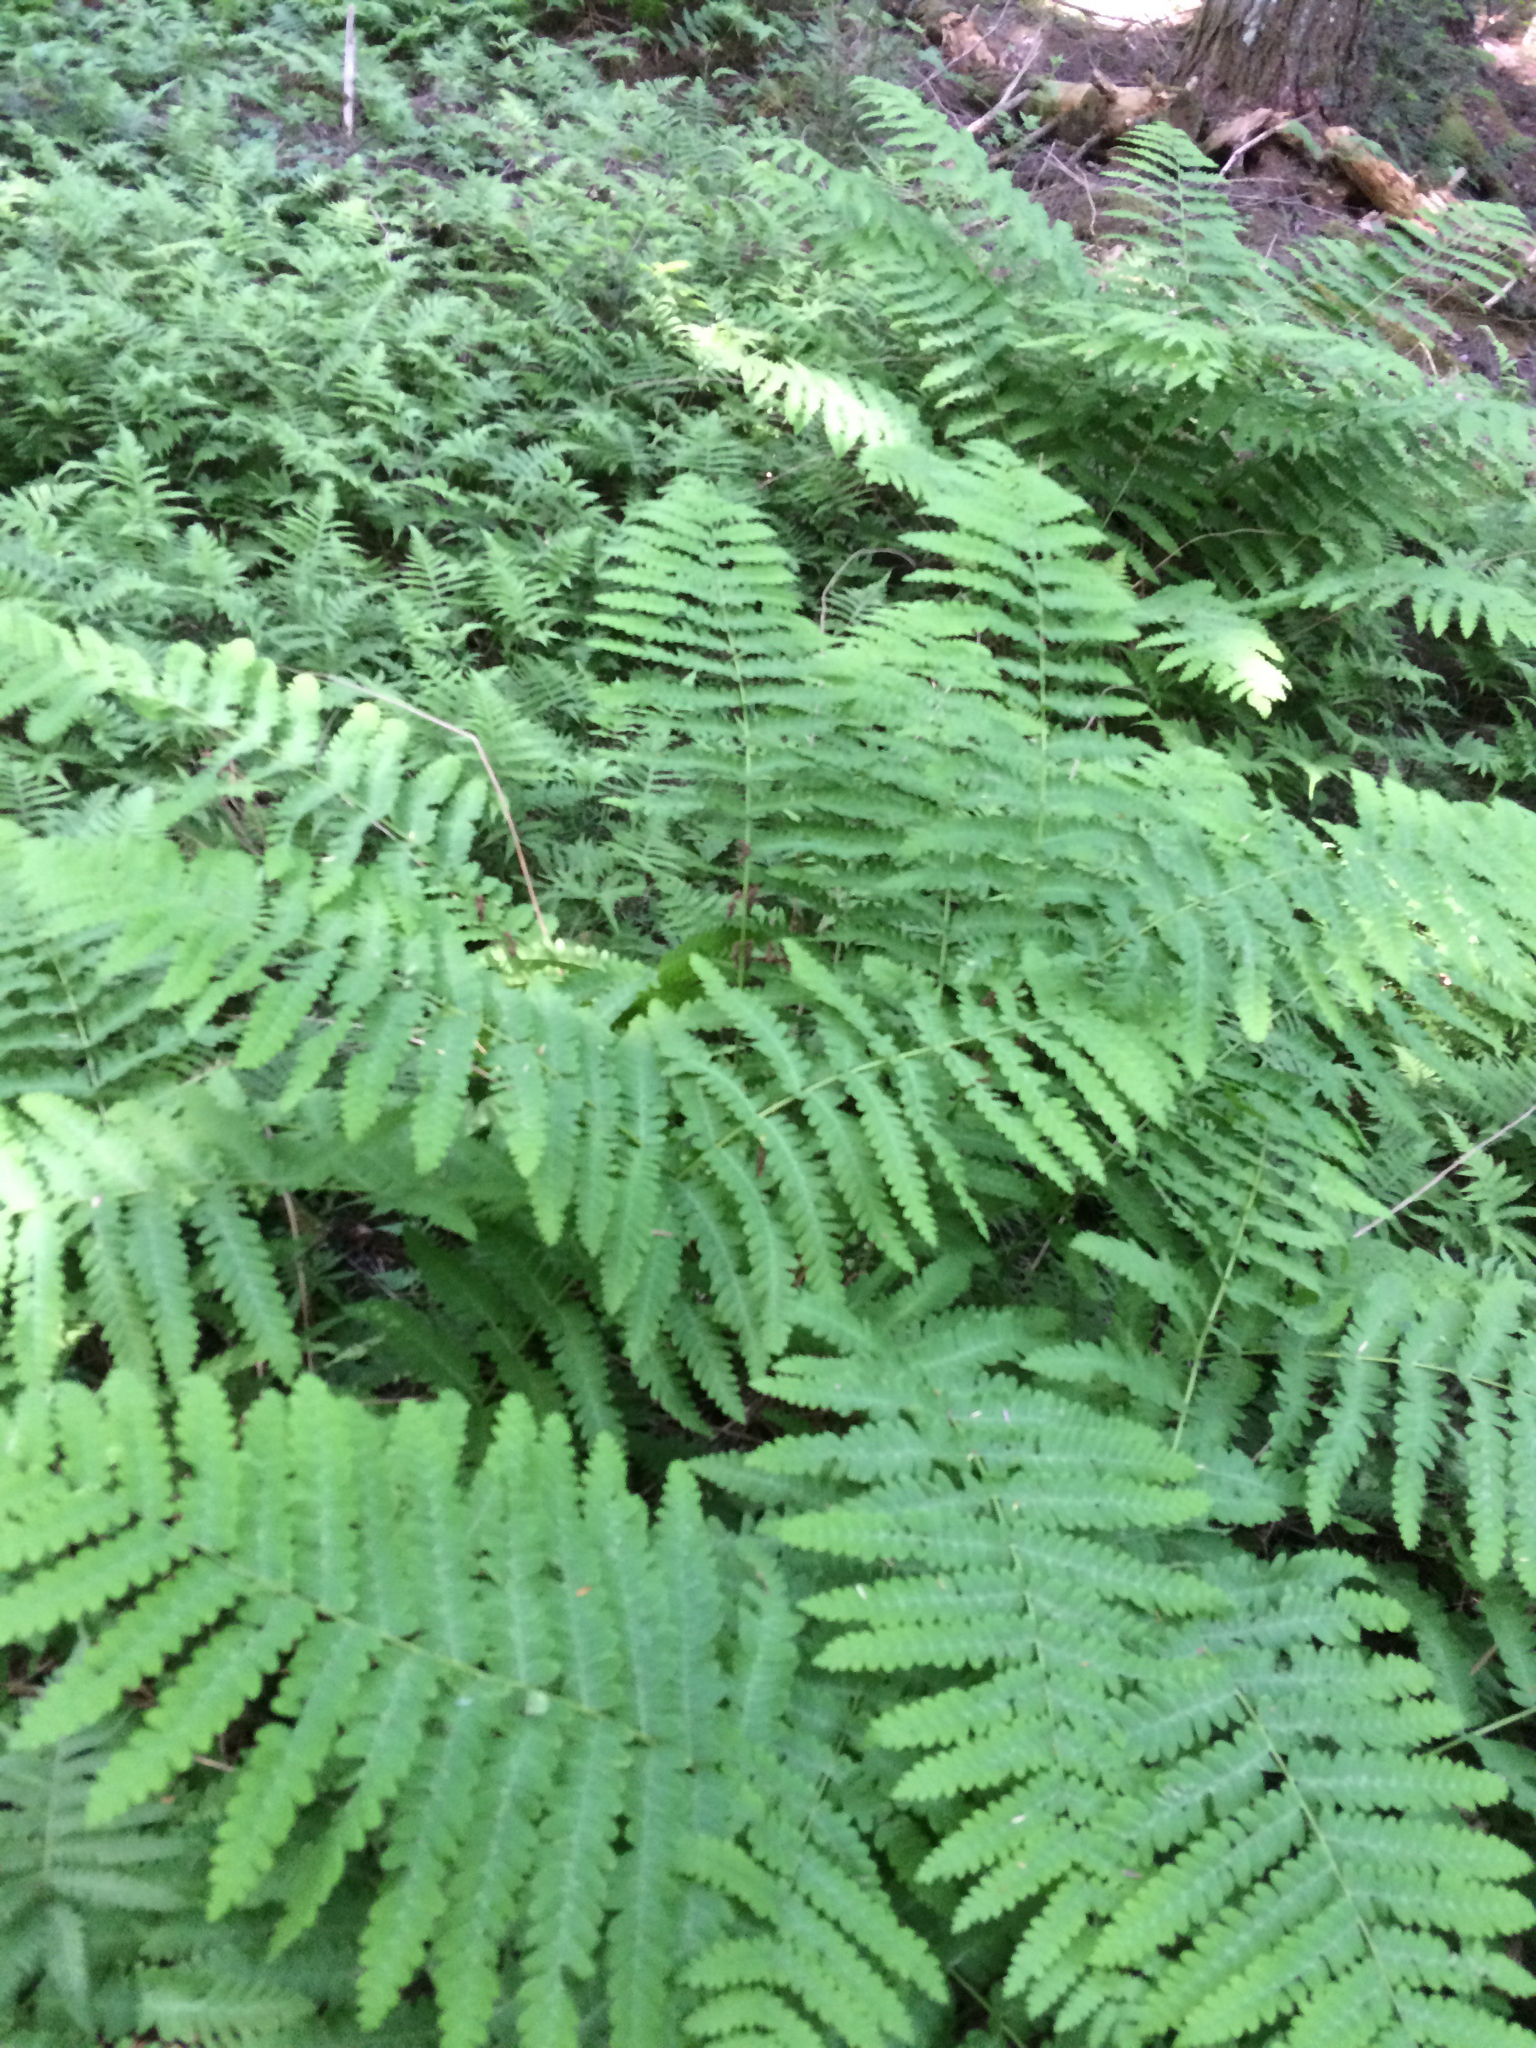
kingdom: Plantae
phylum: Tracheophyta
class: Polypodiopsida
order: Osmundales
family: Osmundaceae
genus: Claytosmunda
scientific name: Claytosmunda claytoniana
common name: Clayton's fern
